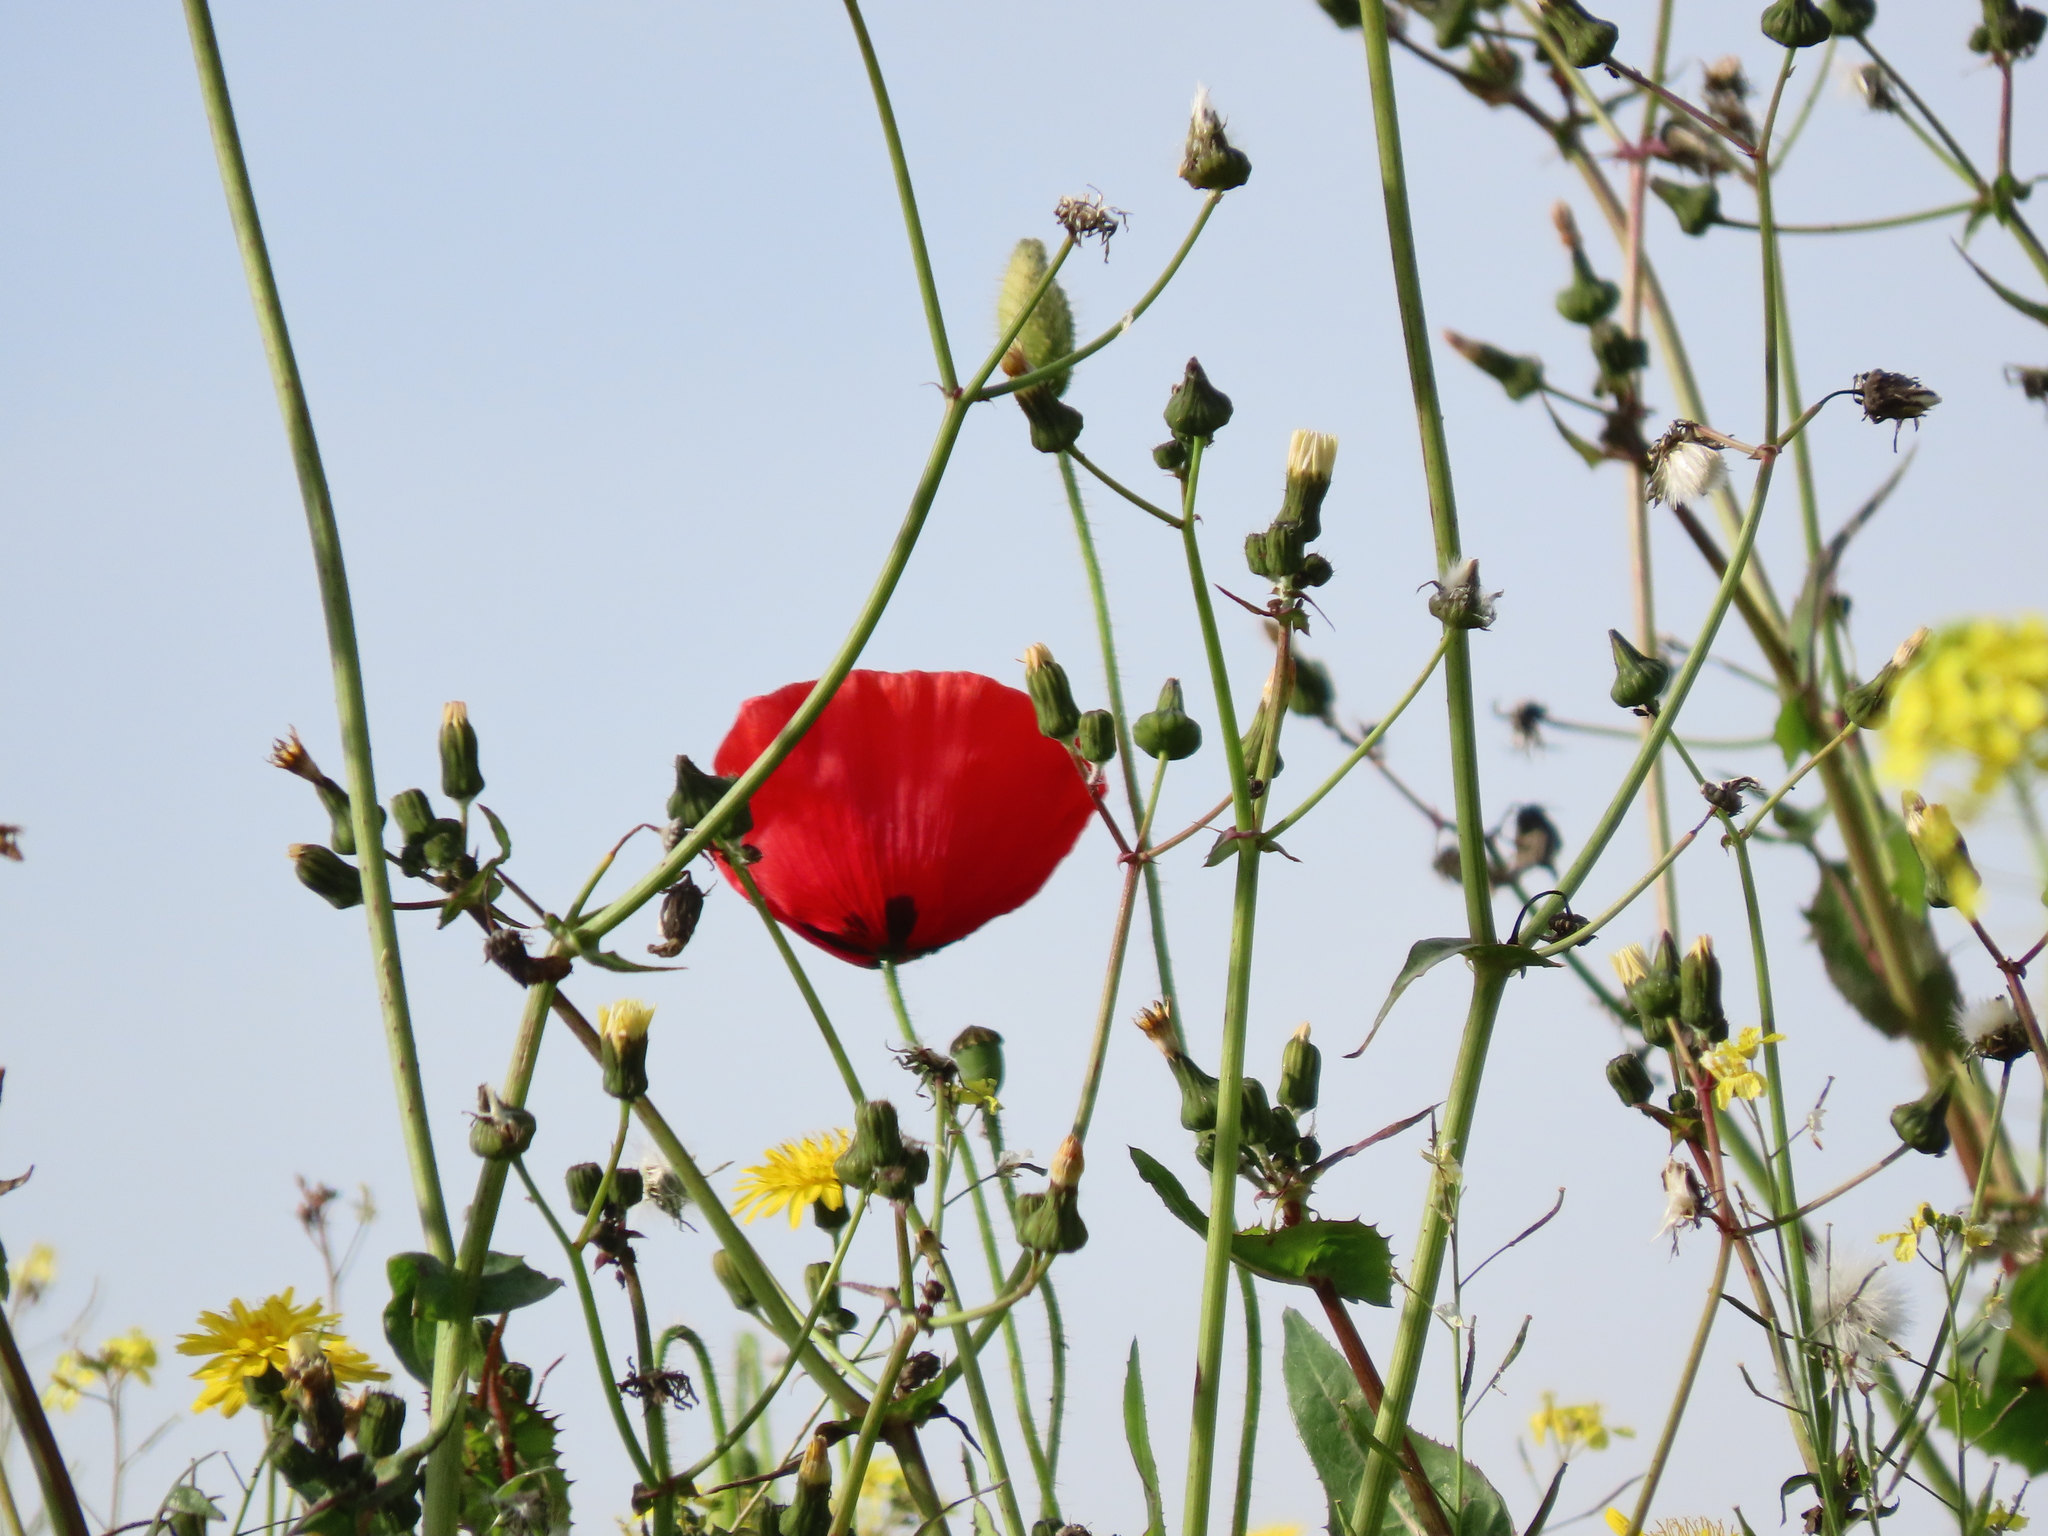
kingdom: Plantae
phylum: Tracheophyta
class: Magnoliopsida
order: Ranunculales
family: Papaveraceae
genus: Papaver
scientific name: Papaver rhoeas
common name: Corn poppy
